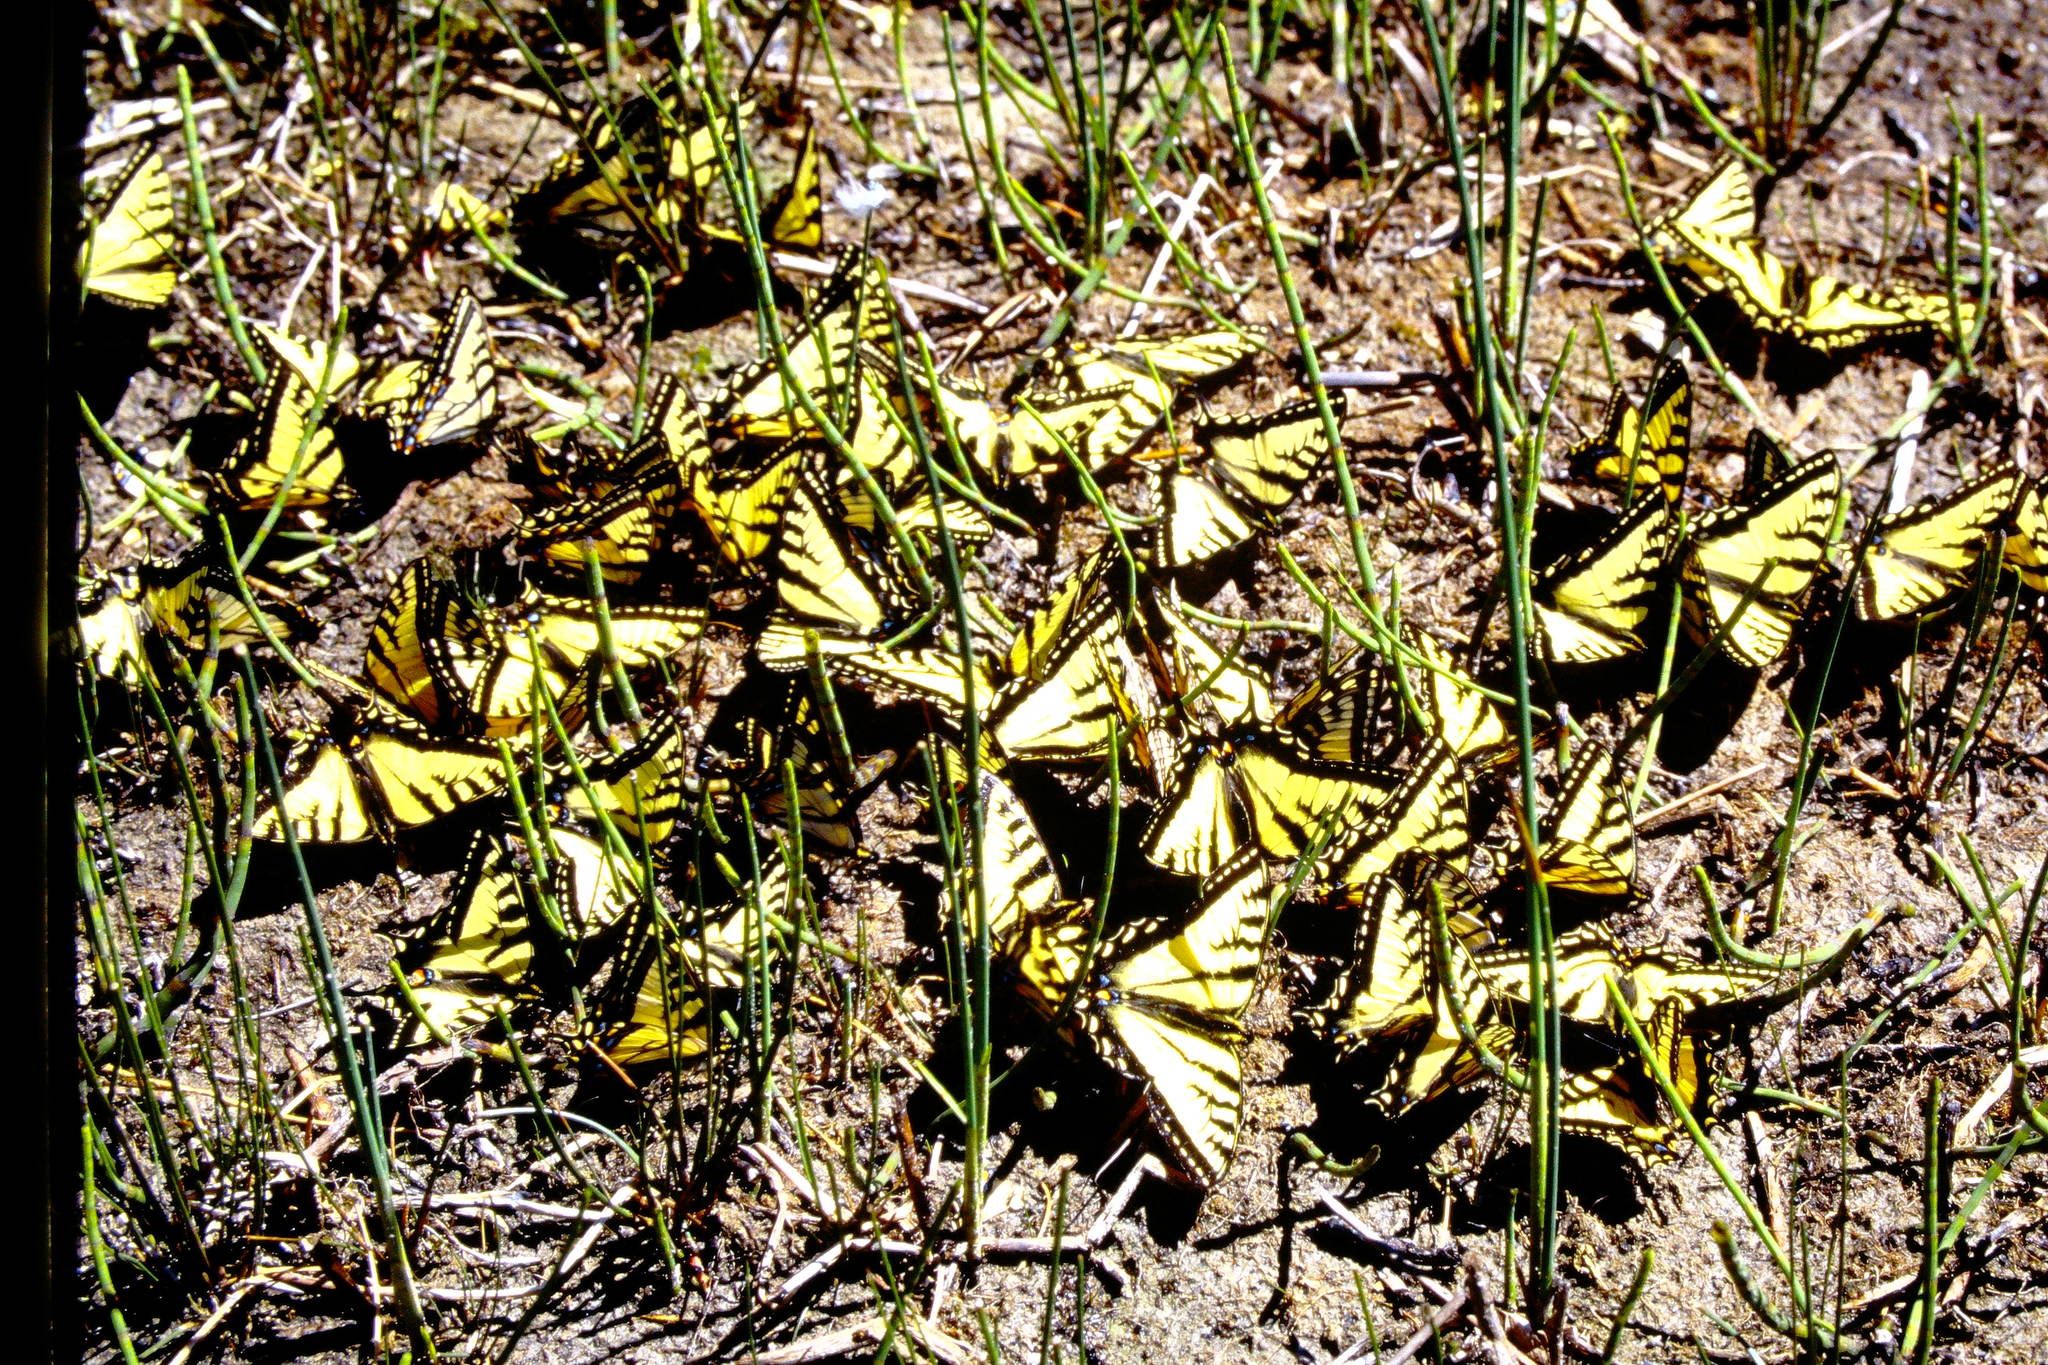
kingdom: Animalia
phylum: Arthropoda
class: Insecta
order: Lepidoptera
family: Papilionidae
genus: Papilio
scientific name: Papilio canadensis
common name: Canadian tiger swallowtail
